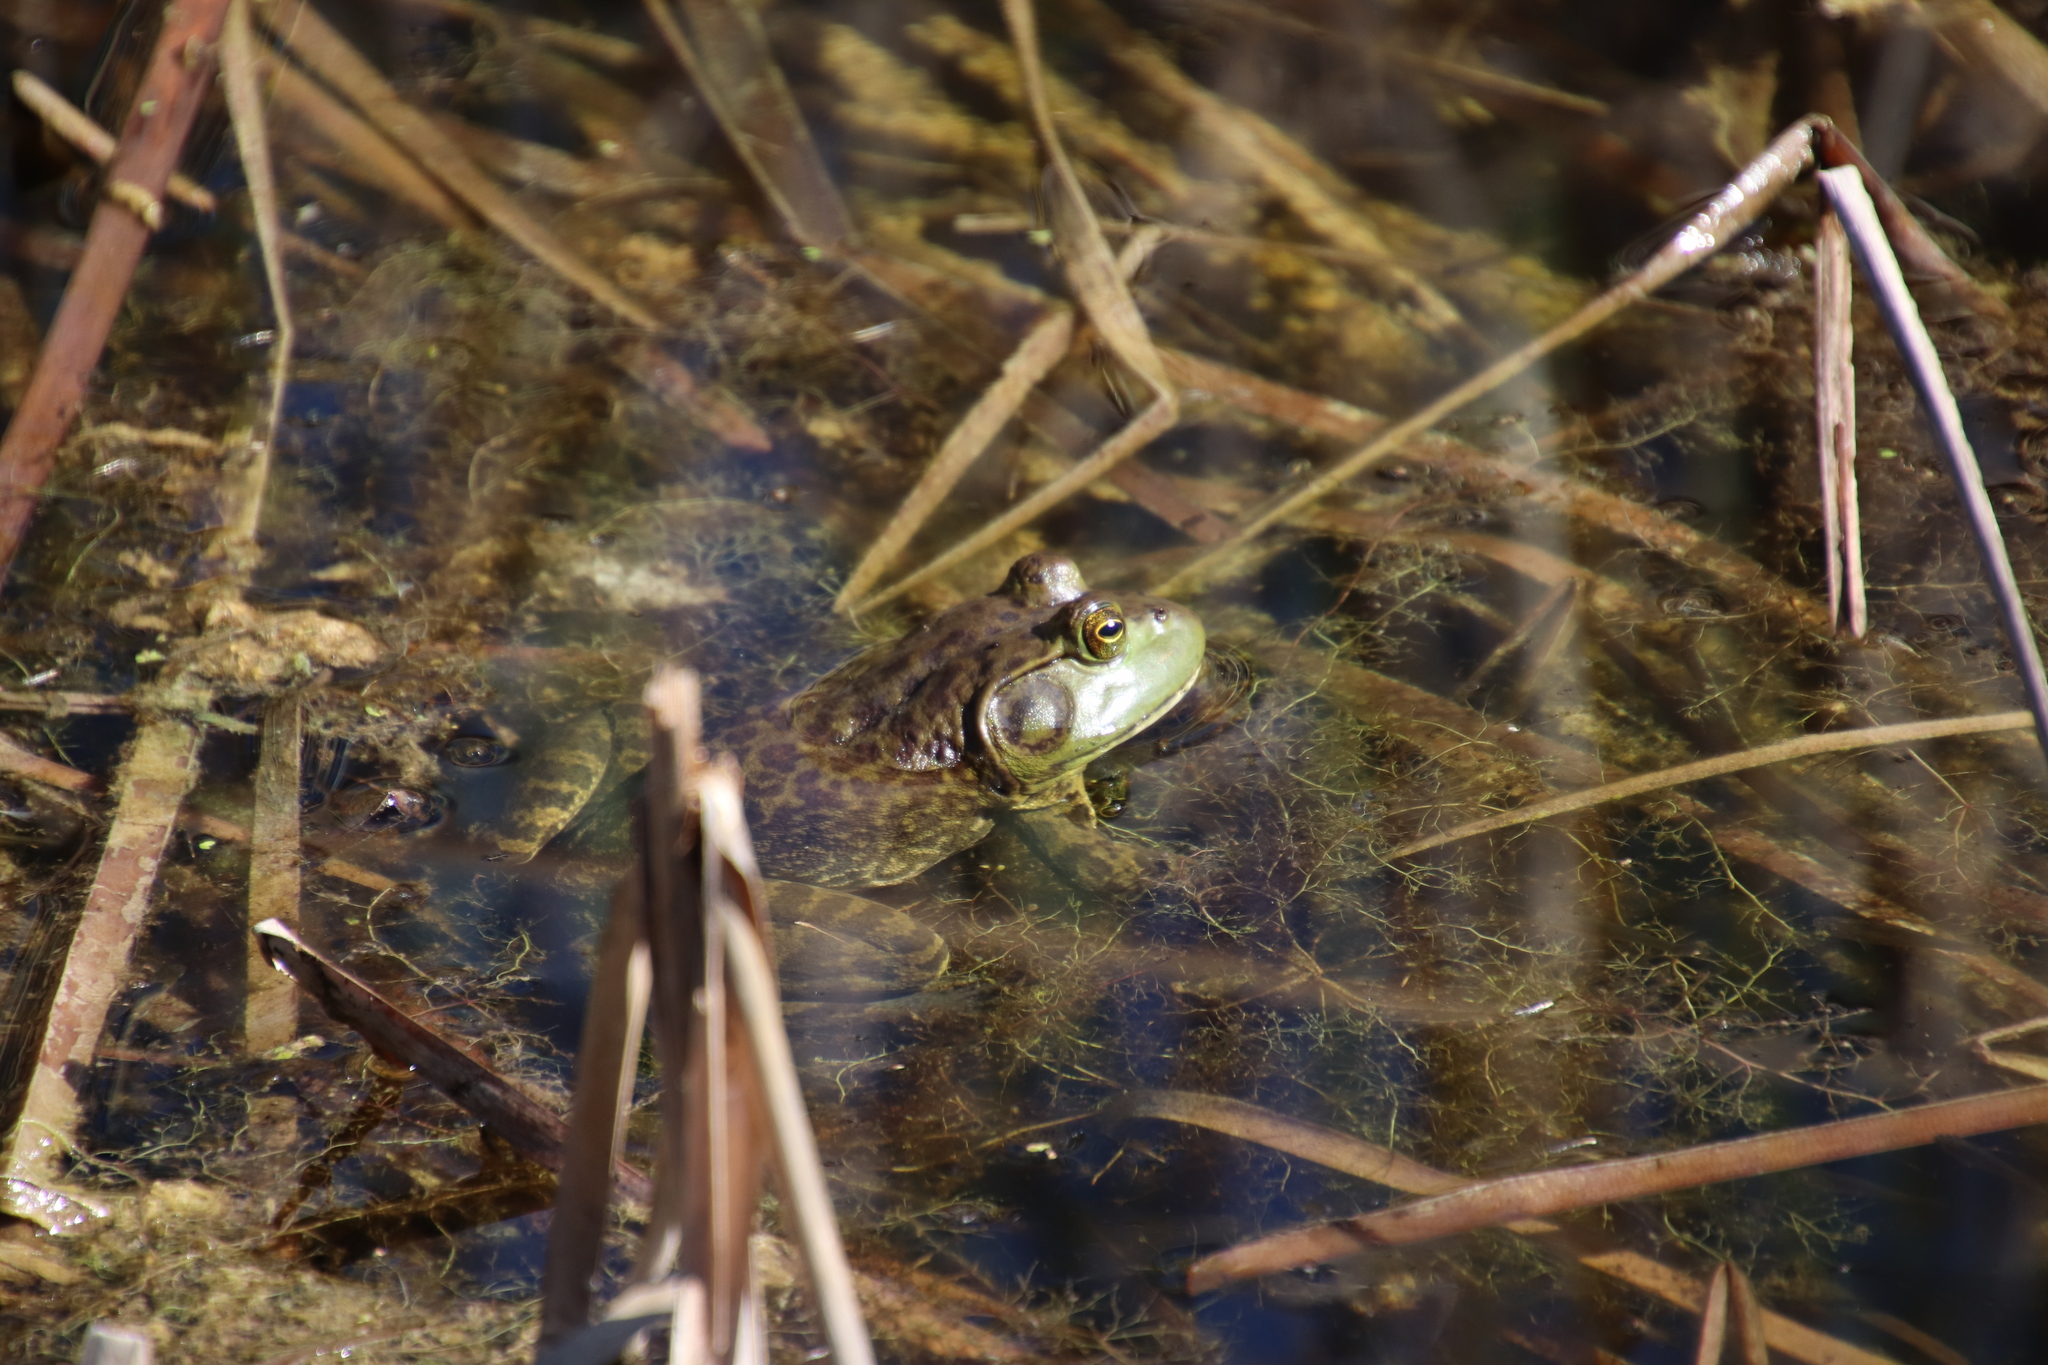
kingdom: Animalia
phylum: Chordata
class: Amphibia
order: Anura
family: Ranidae
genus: Lithobates
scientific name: Lithobates catesbeianus
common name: American bullfrog
